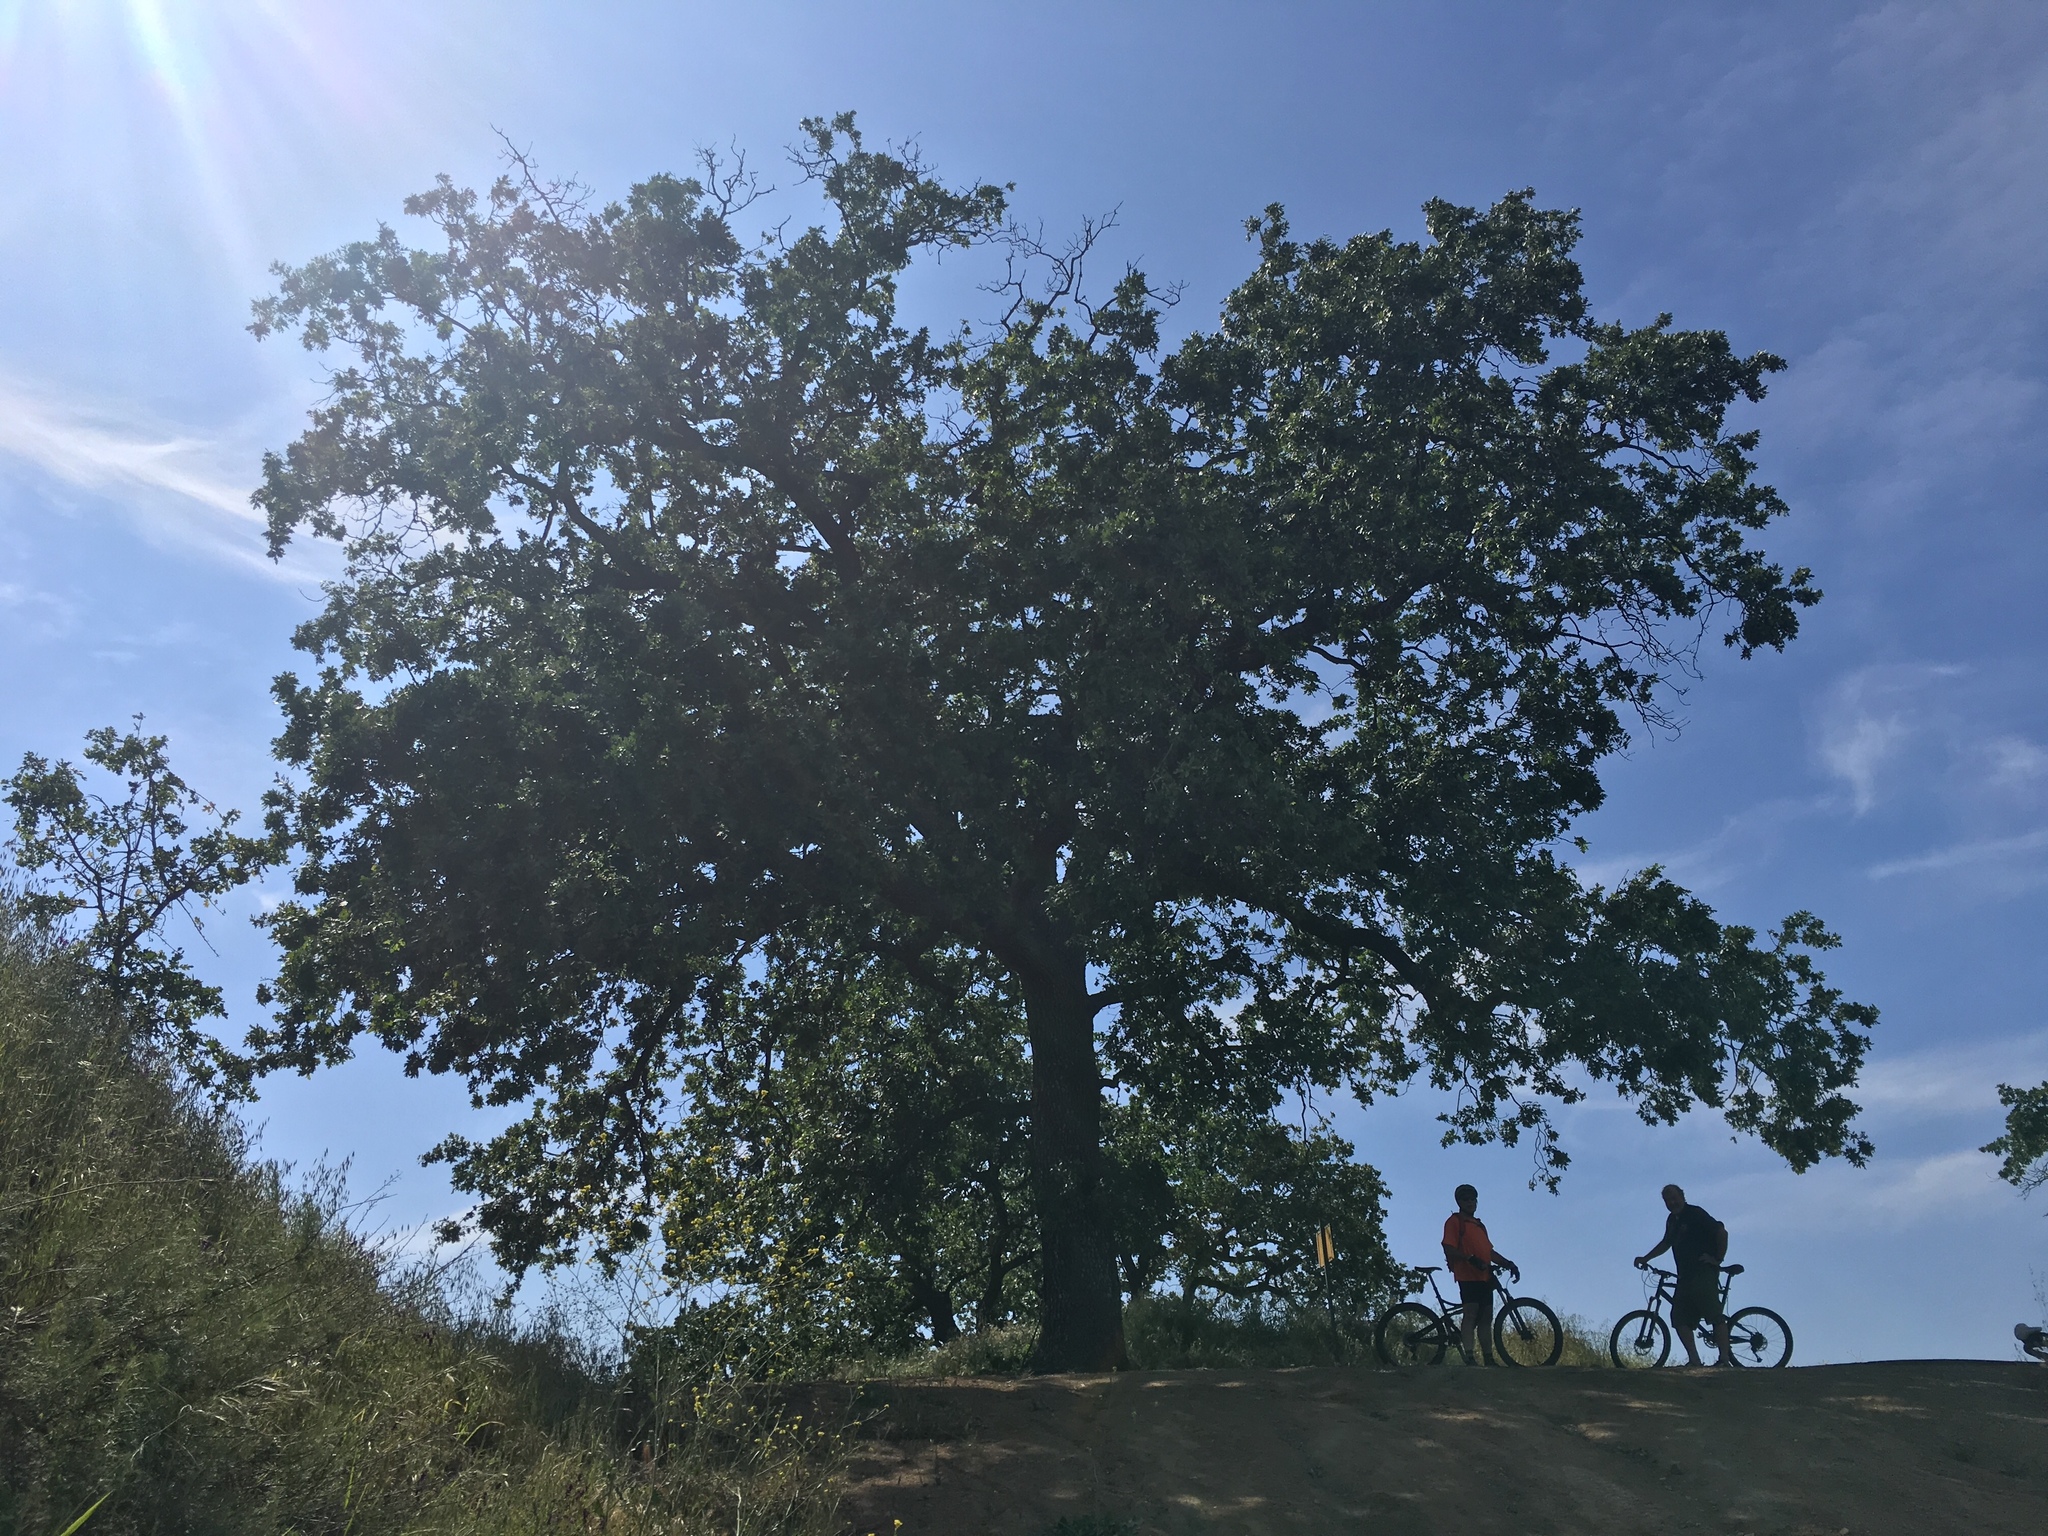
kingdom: Plantae
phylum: Tracheophyta
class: Magnoliopsida
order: Fagales
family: Fagaceae
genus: Quercus
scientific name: Quercus lobata
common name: Valley oak
